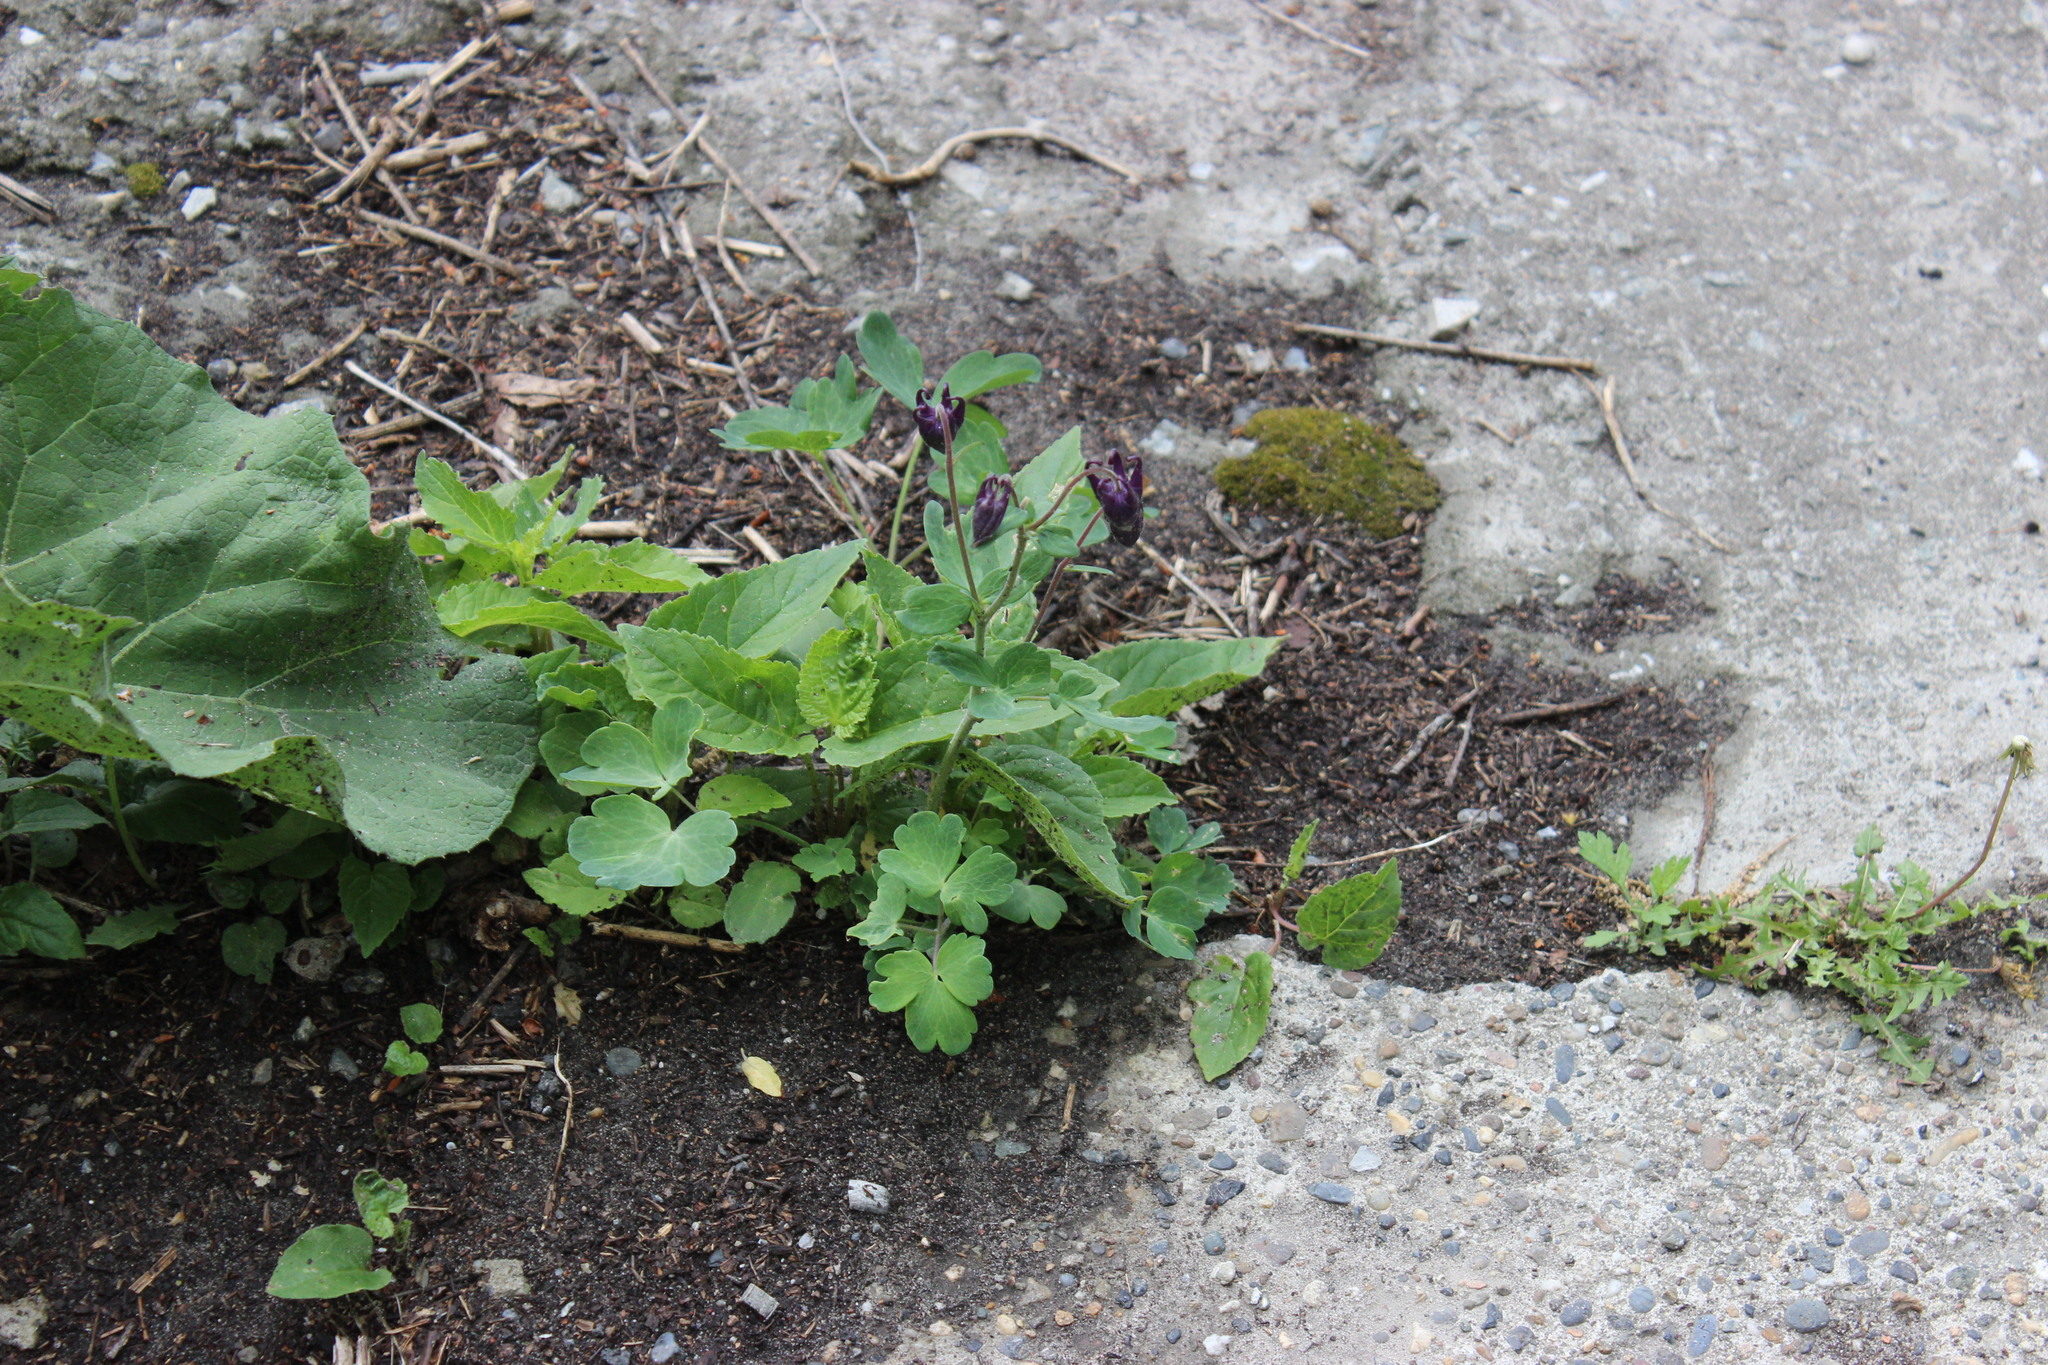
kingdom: Plantae
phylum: Tracheophyta
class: Magnoliopsida
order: Ranunculales
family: Ranunculaceae
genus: Aquilegia
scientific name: Aquilegia vulgaris
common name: Columbine
